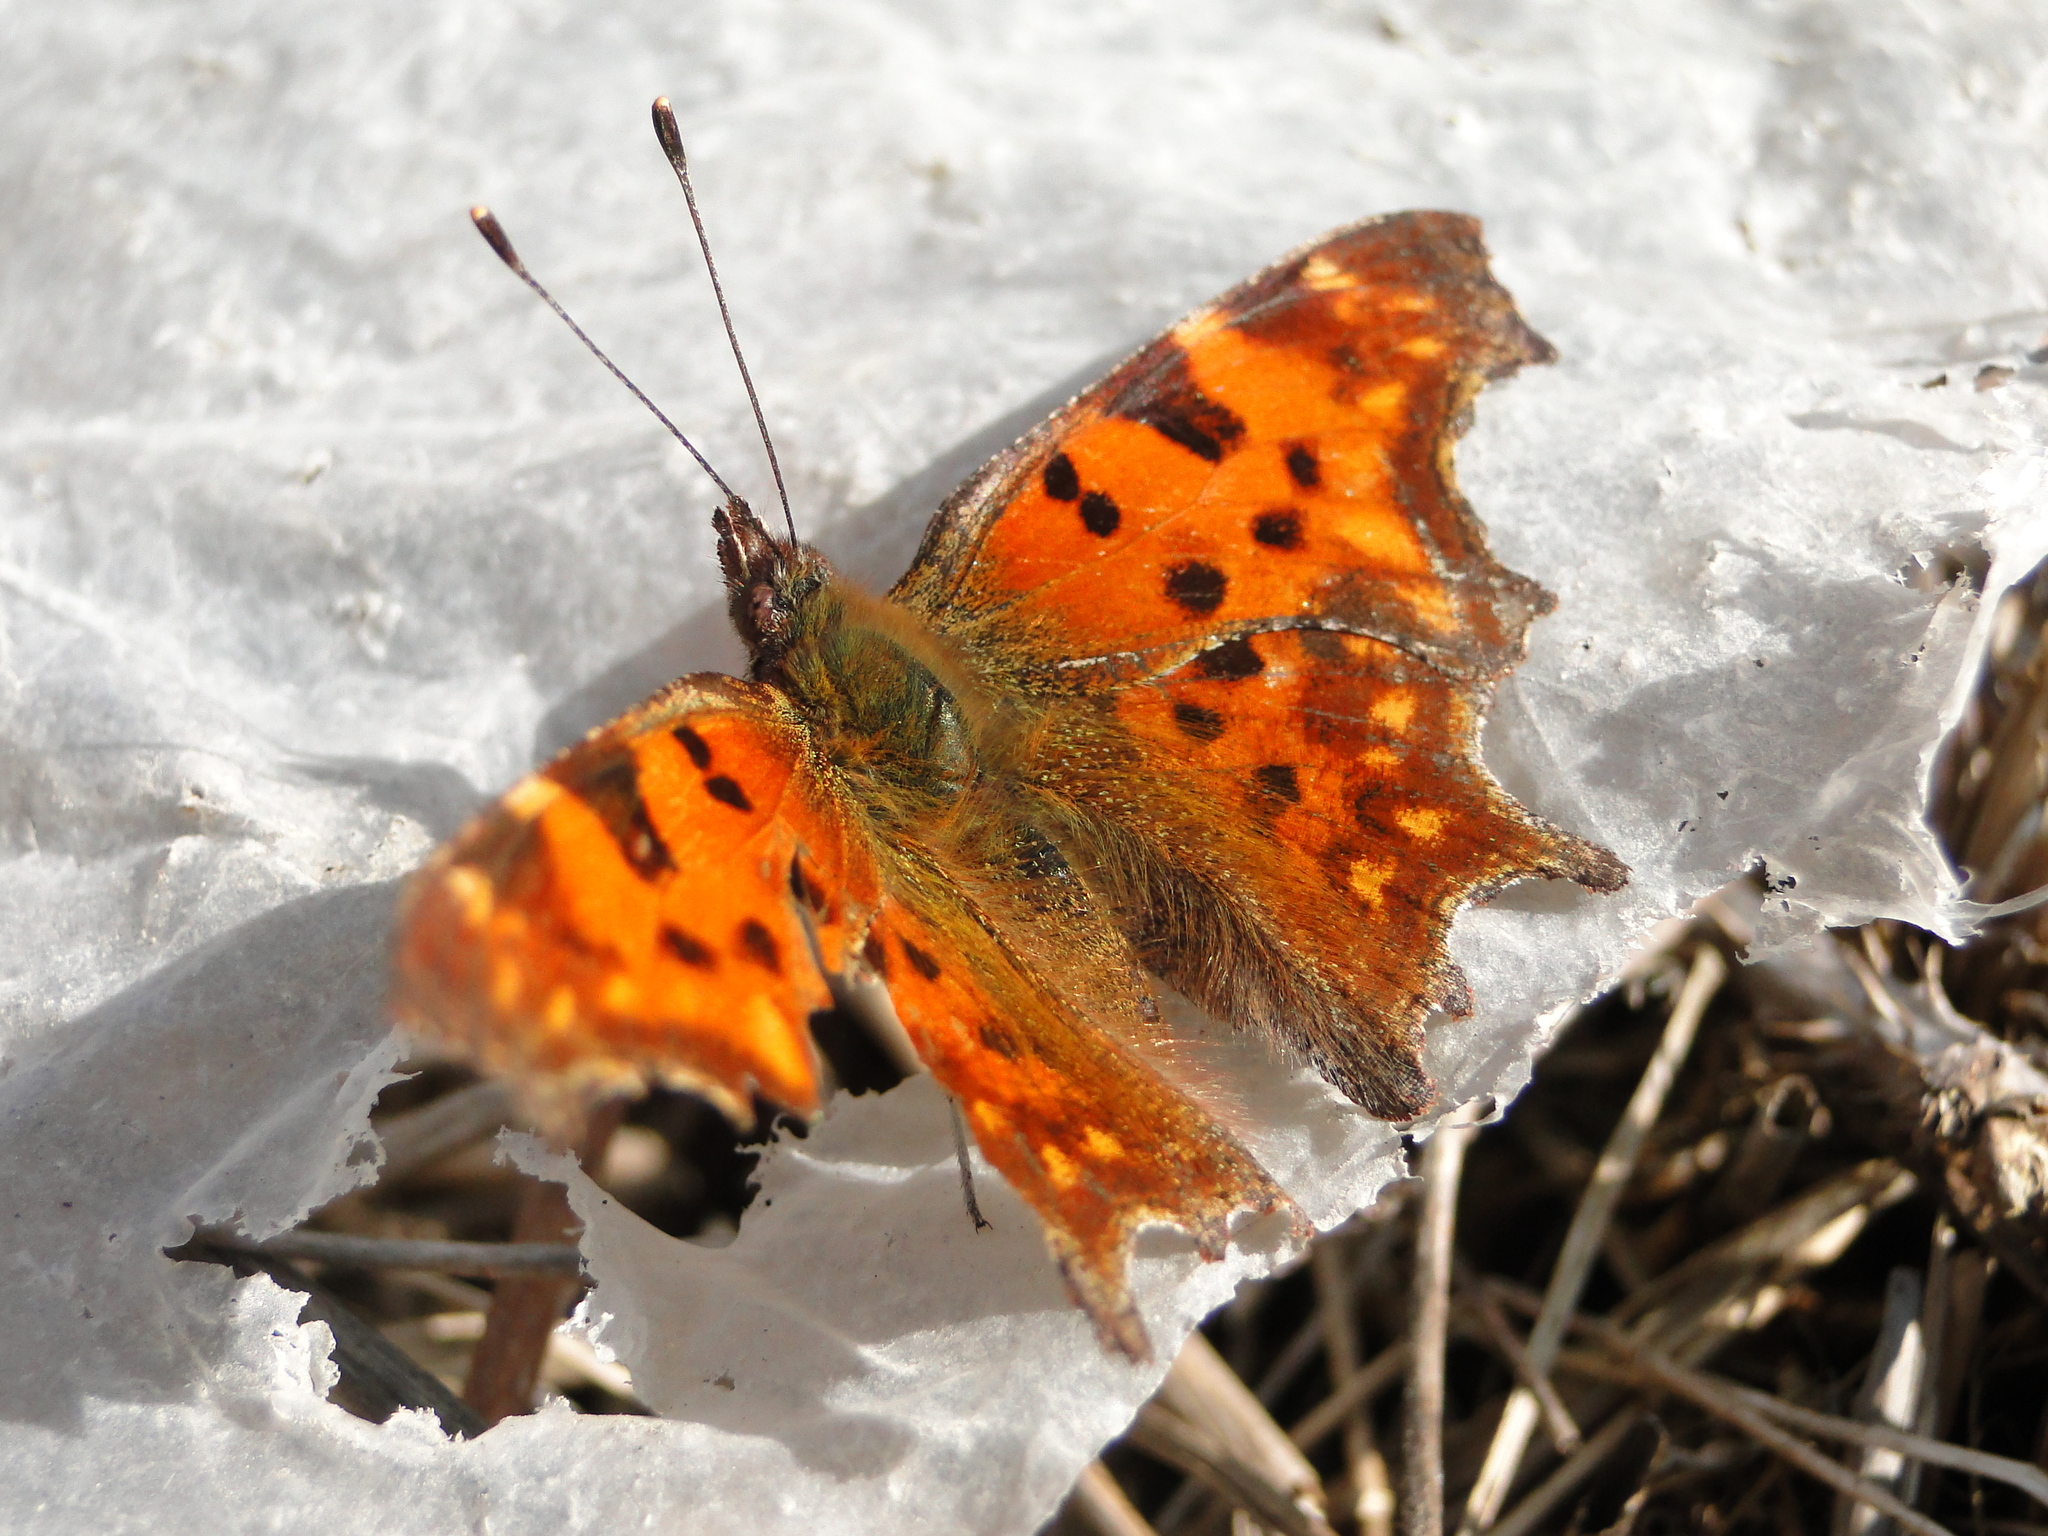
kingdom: Animalia
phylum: Arthropoda
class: Insecta
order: Lepidoptera
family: Nymphalidae
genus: Polygonia
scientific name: Polygonia c-album
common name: Comma
